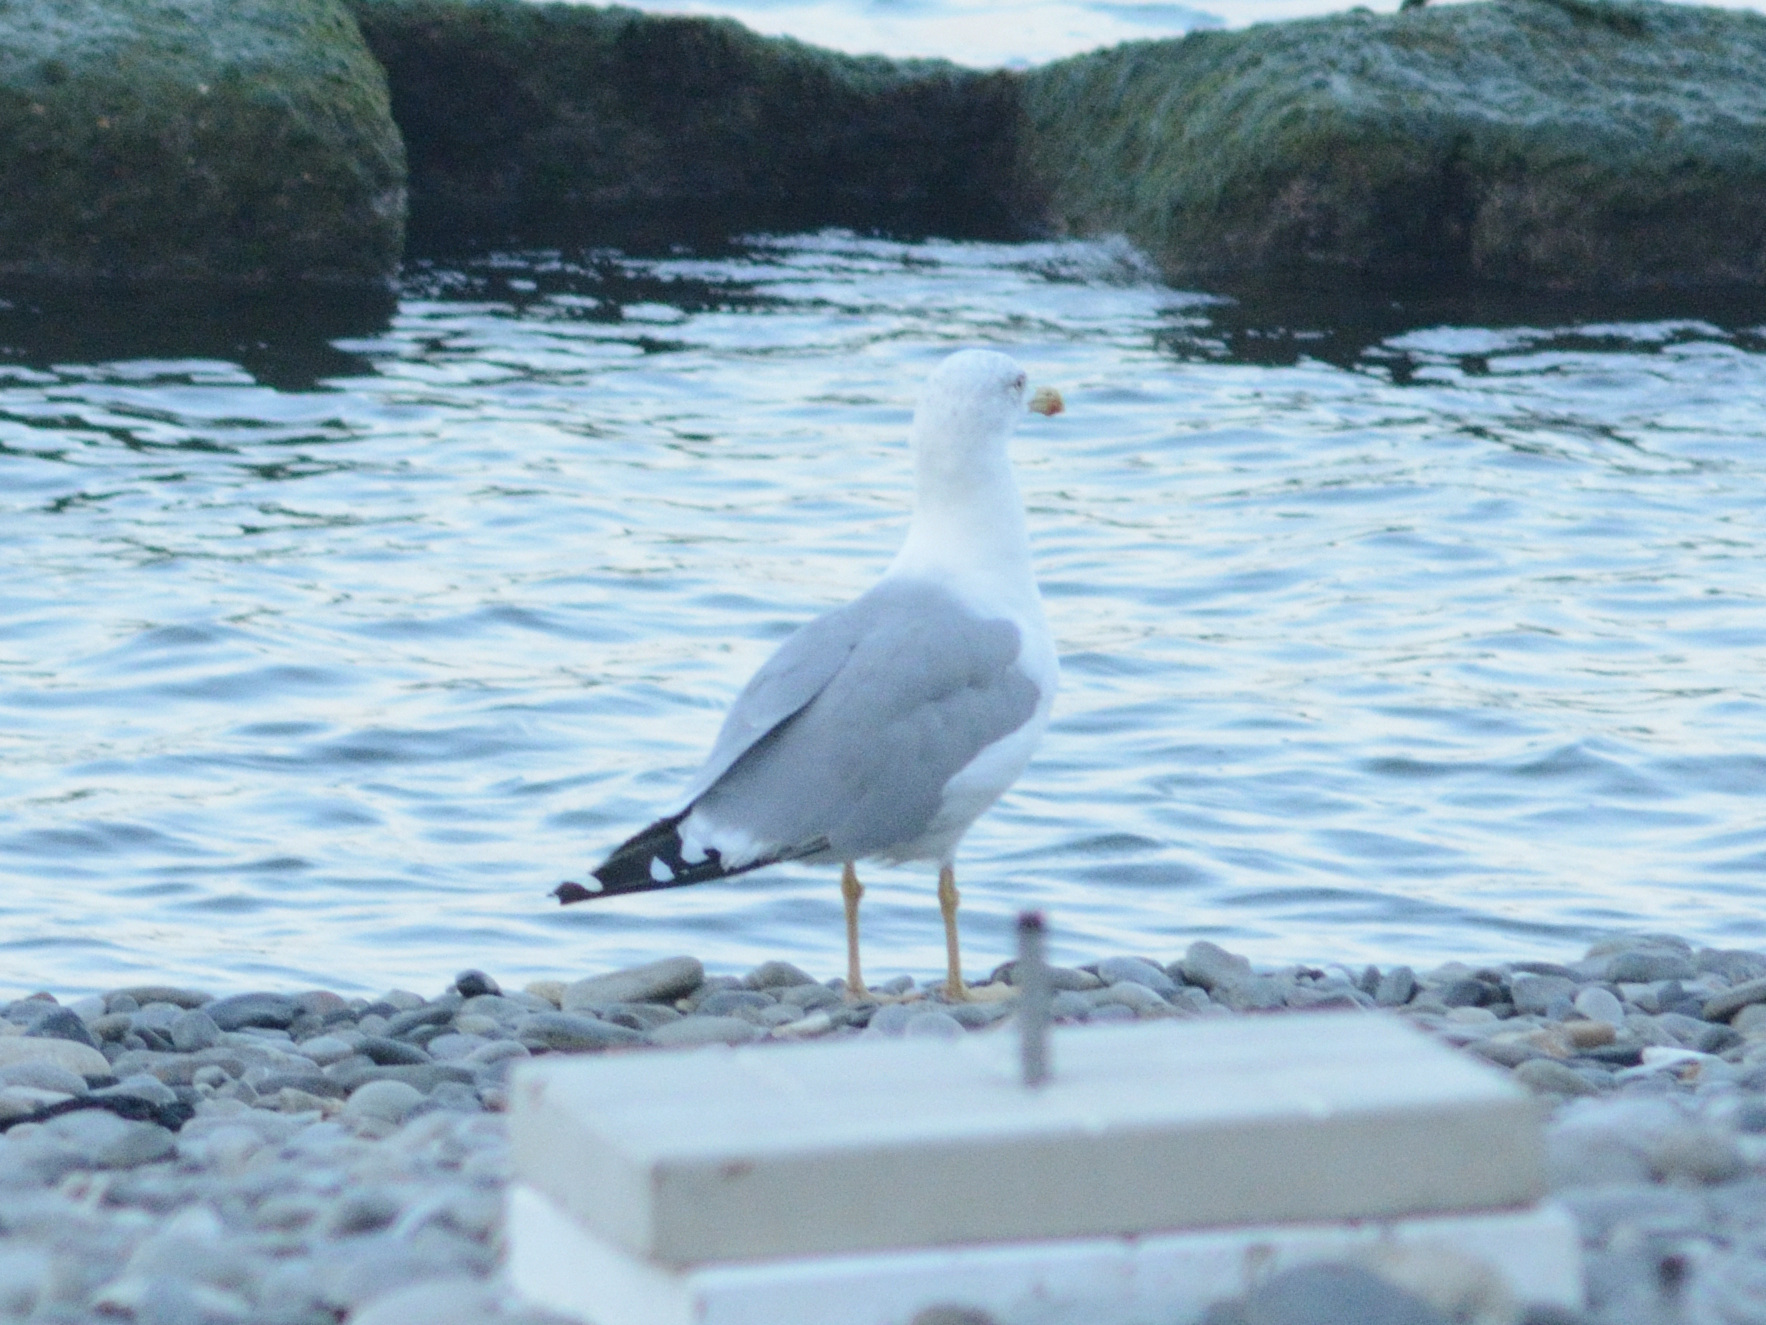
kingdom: Animalia
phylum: Chordata
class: Aves
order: Charadriiformes
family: Laridae
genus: Larus
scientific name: Larus michahellis
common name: Yellow-legged gull
